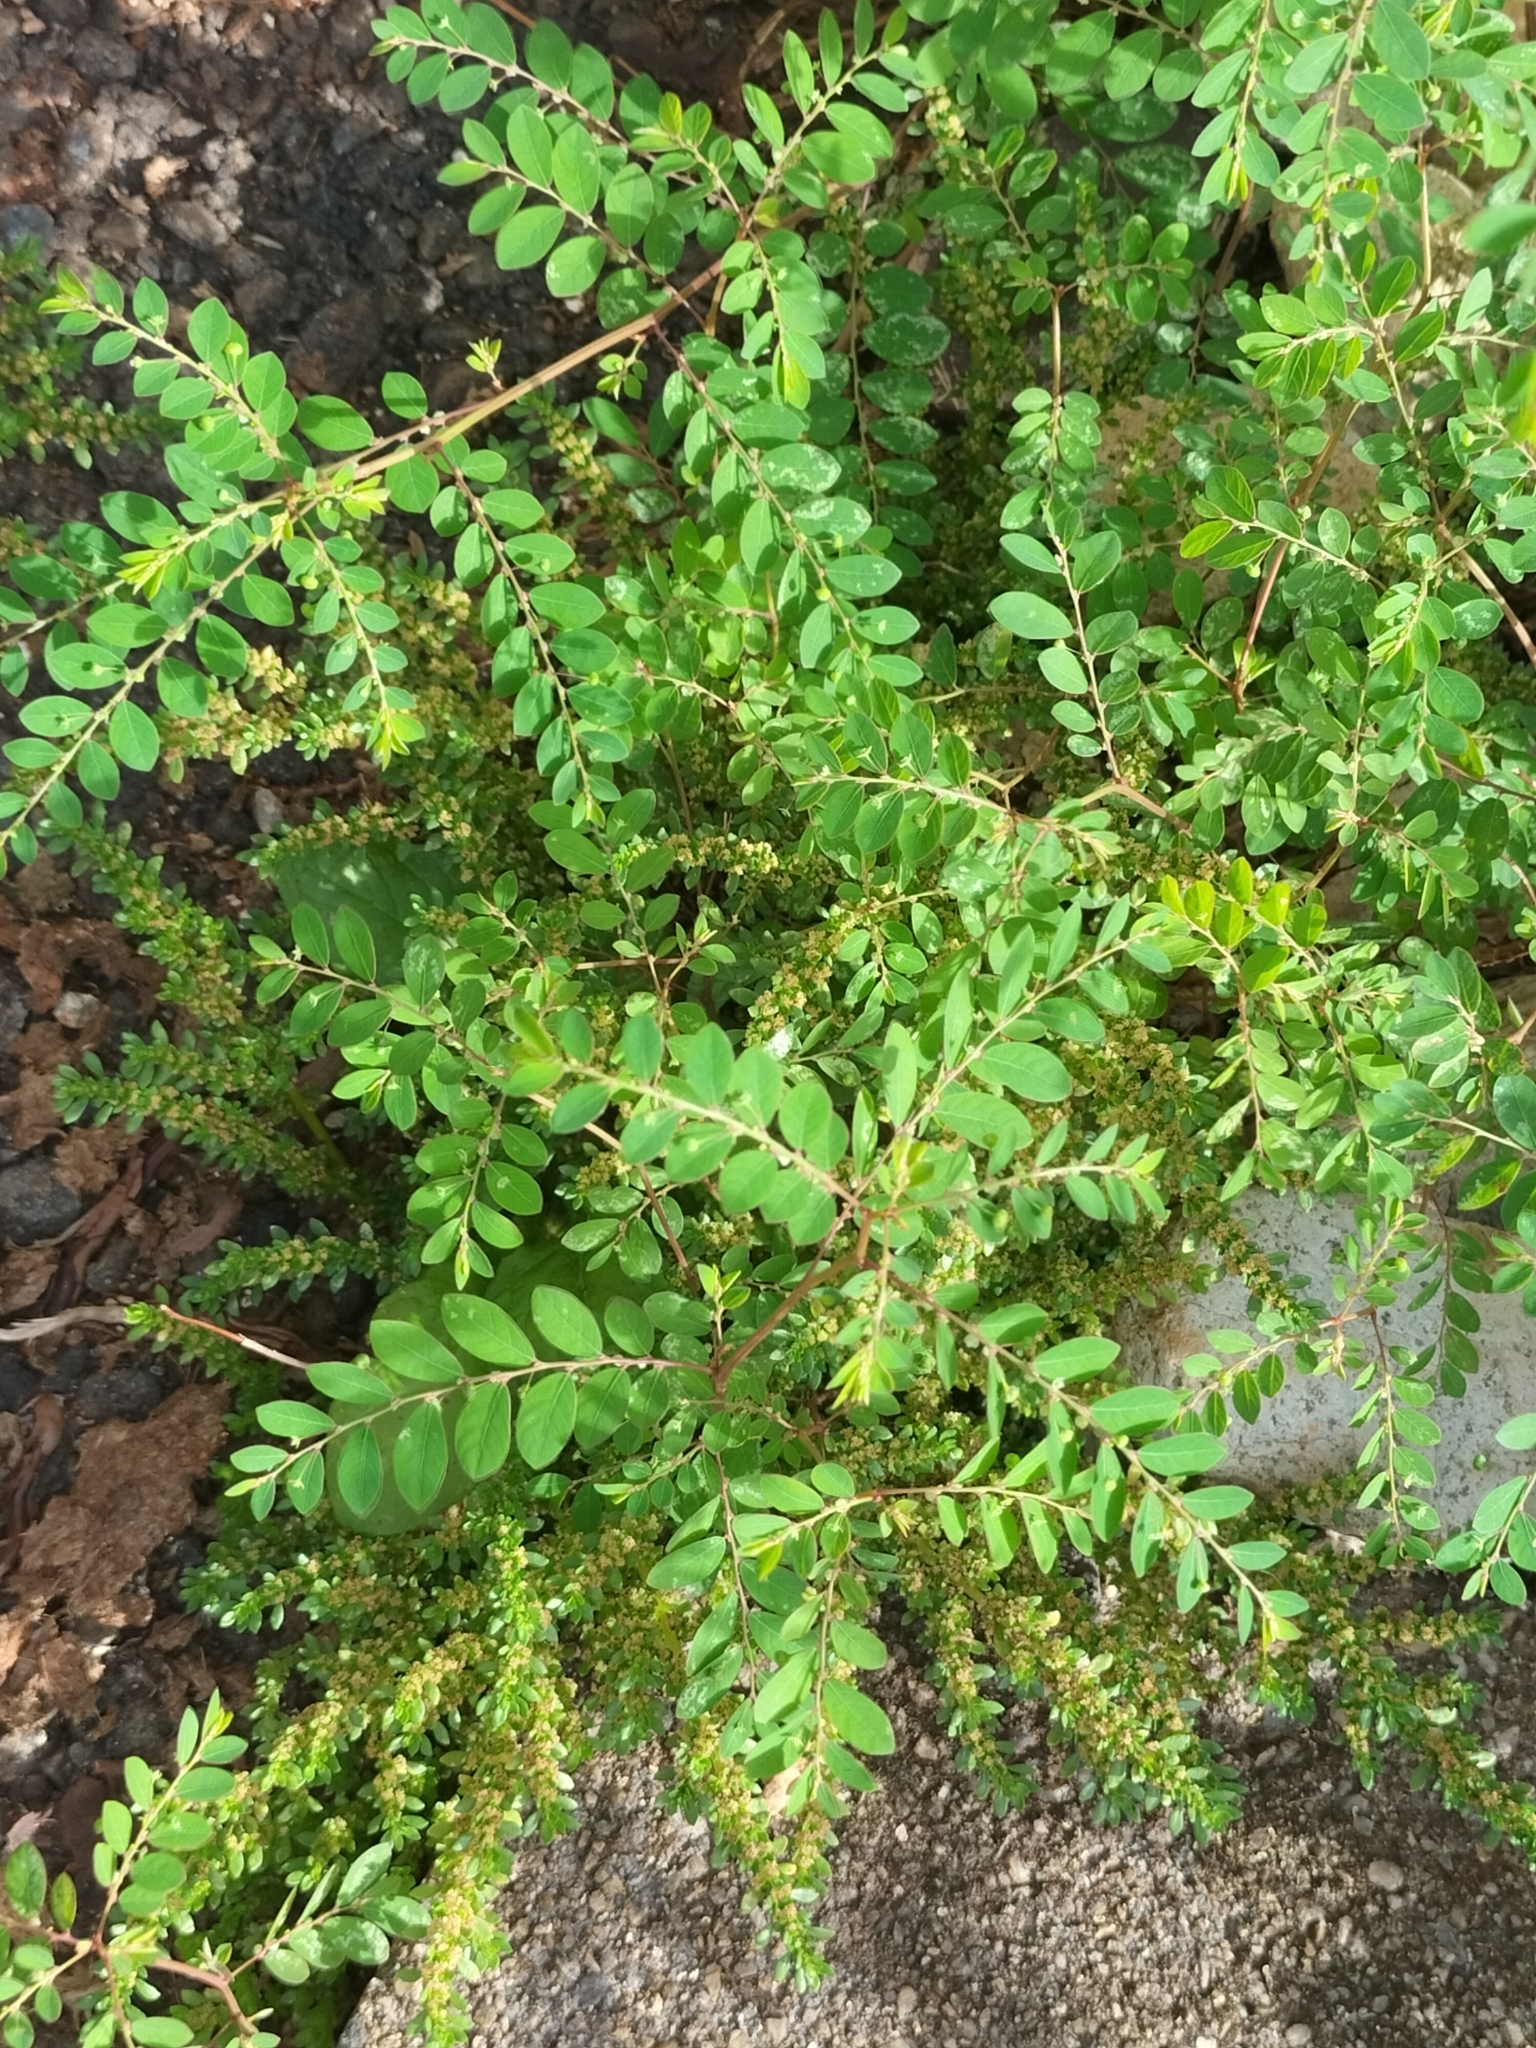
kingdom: Plantae
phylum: Tracheophyta
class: Magnoliopsida
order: Malpighiales
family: Phyllanthaceae
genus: Phyllanthus
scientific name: Phyllanthus tenellus
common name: Mascarene island leaf-flower
